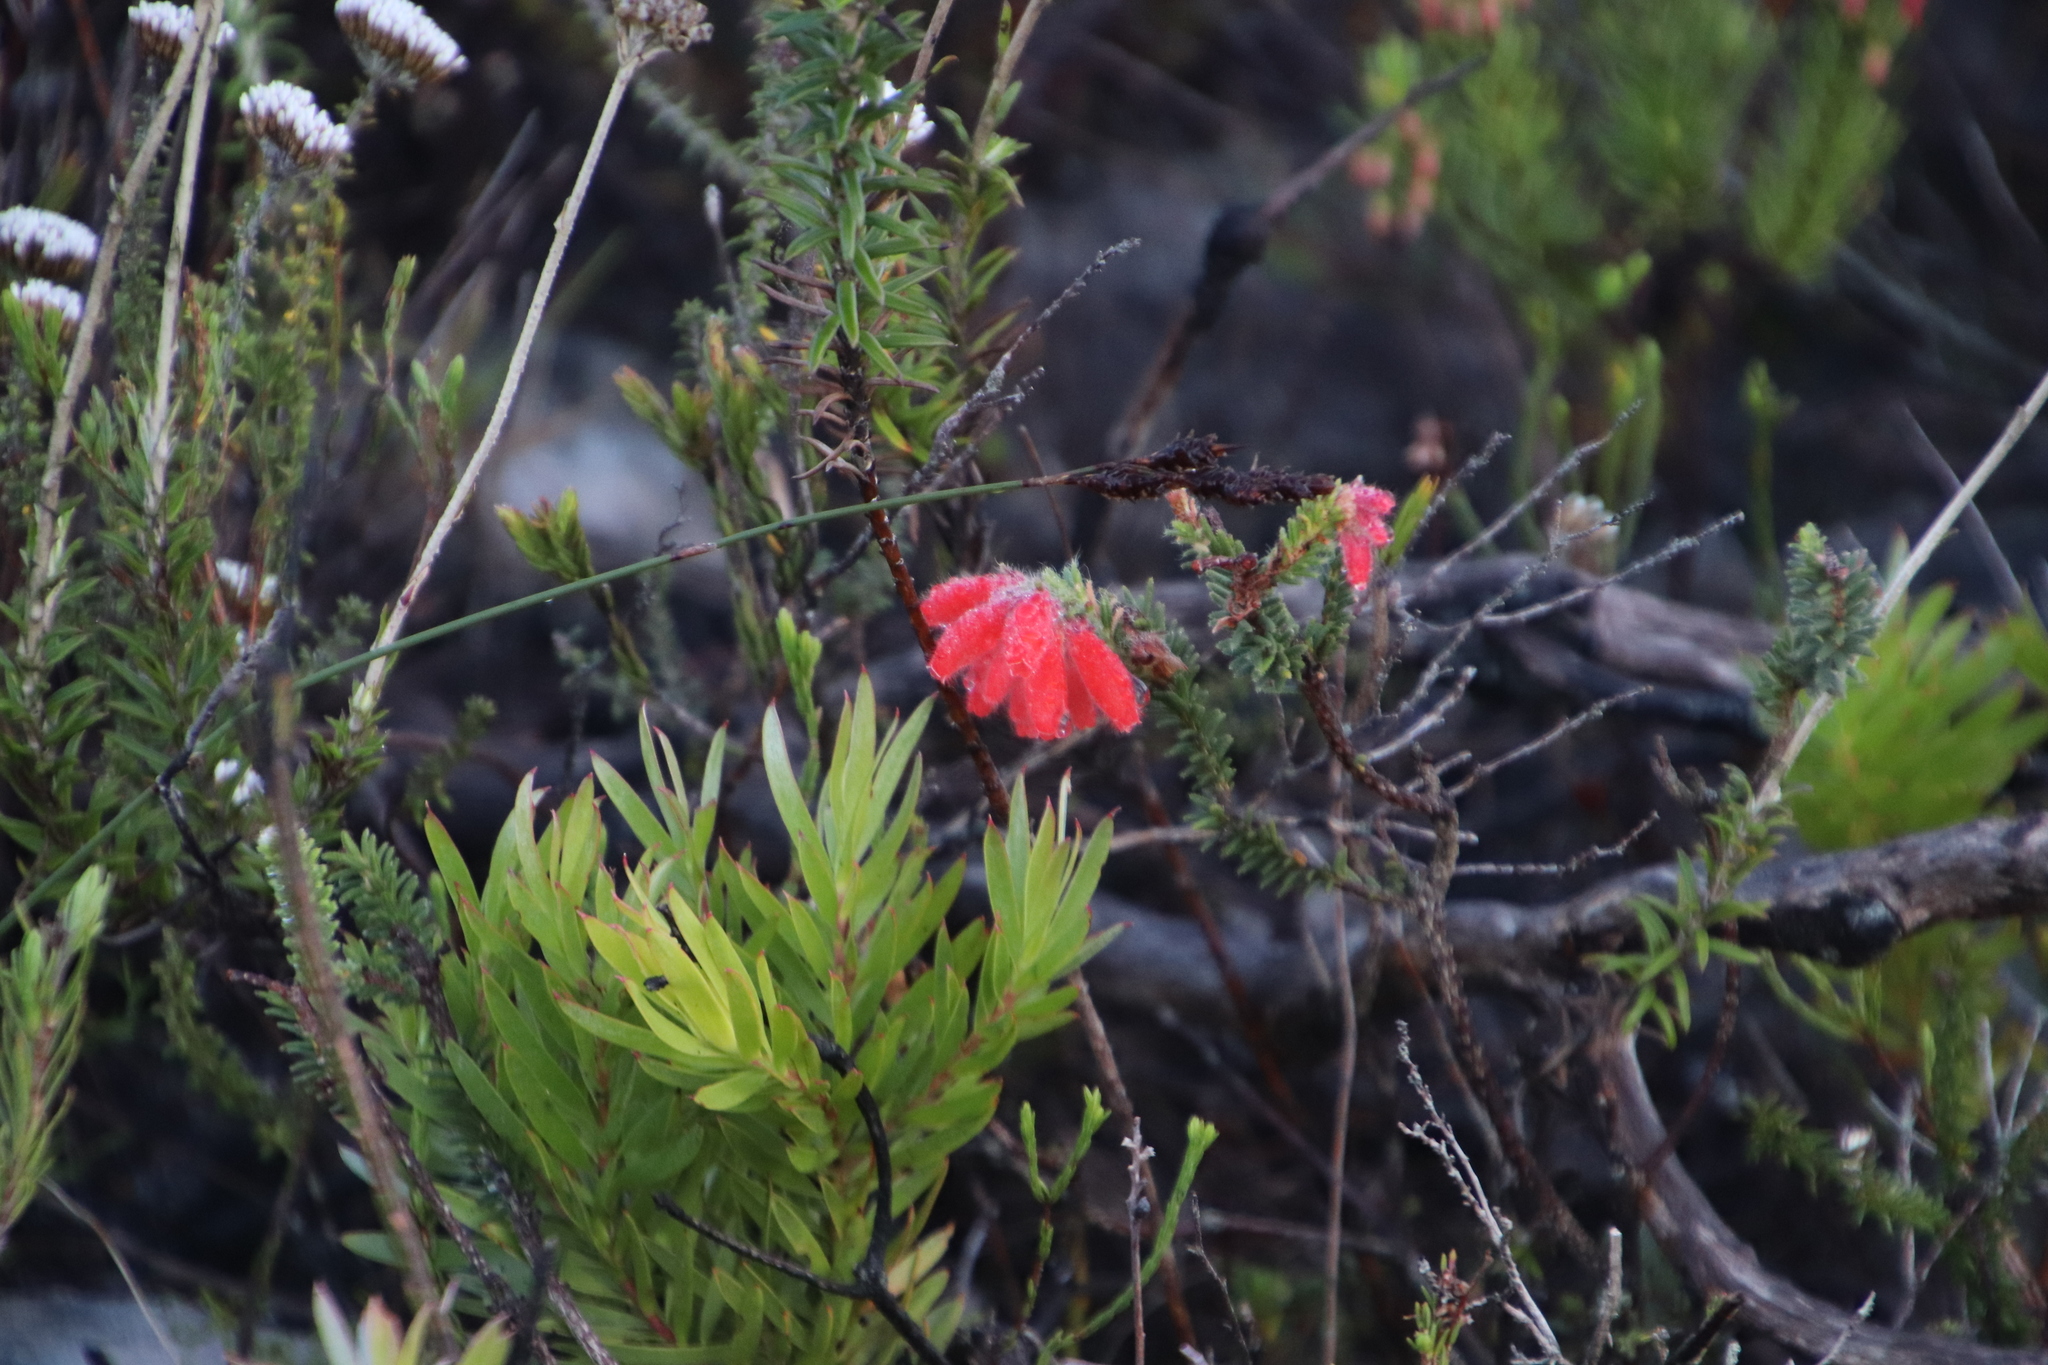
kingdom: Plantae
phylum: Tracheophyta
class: Magnoliopsida
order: Ericales
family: Ericaceae
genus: Erica
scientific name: Erica cerinthoides
